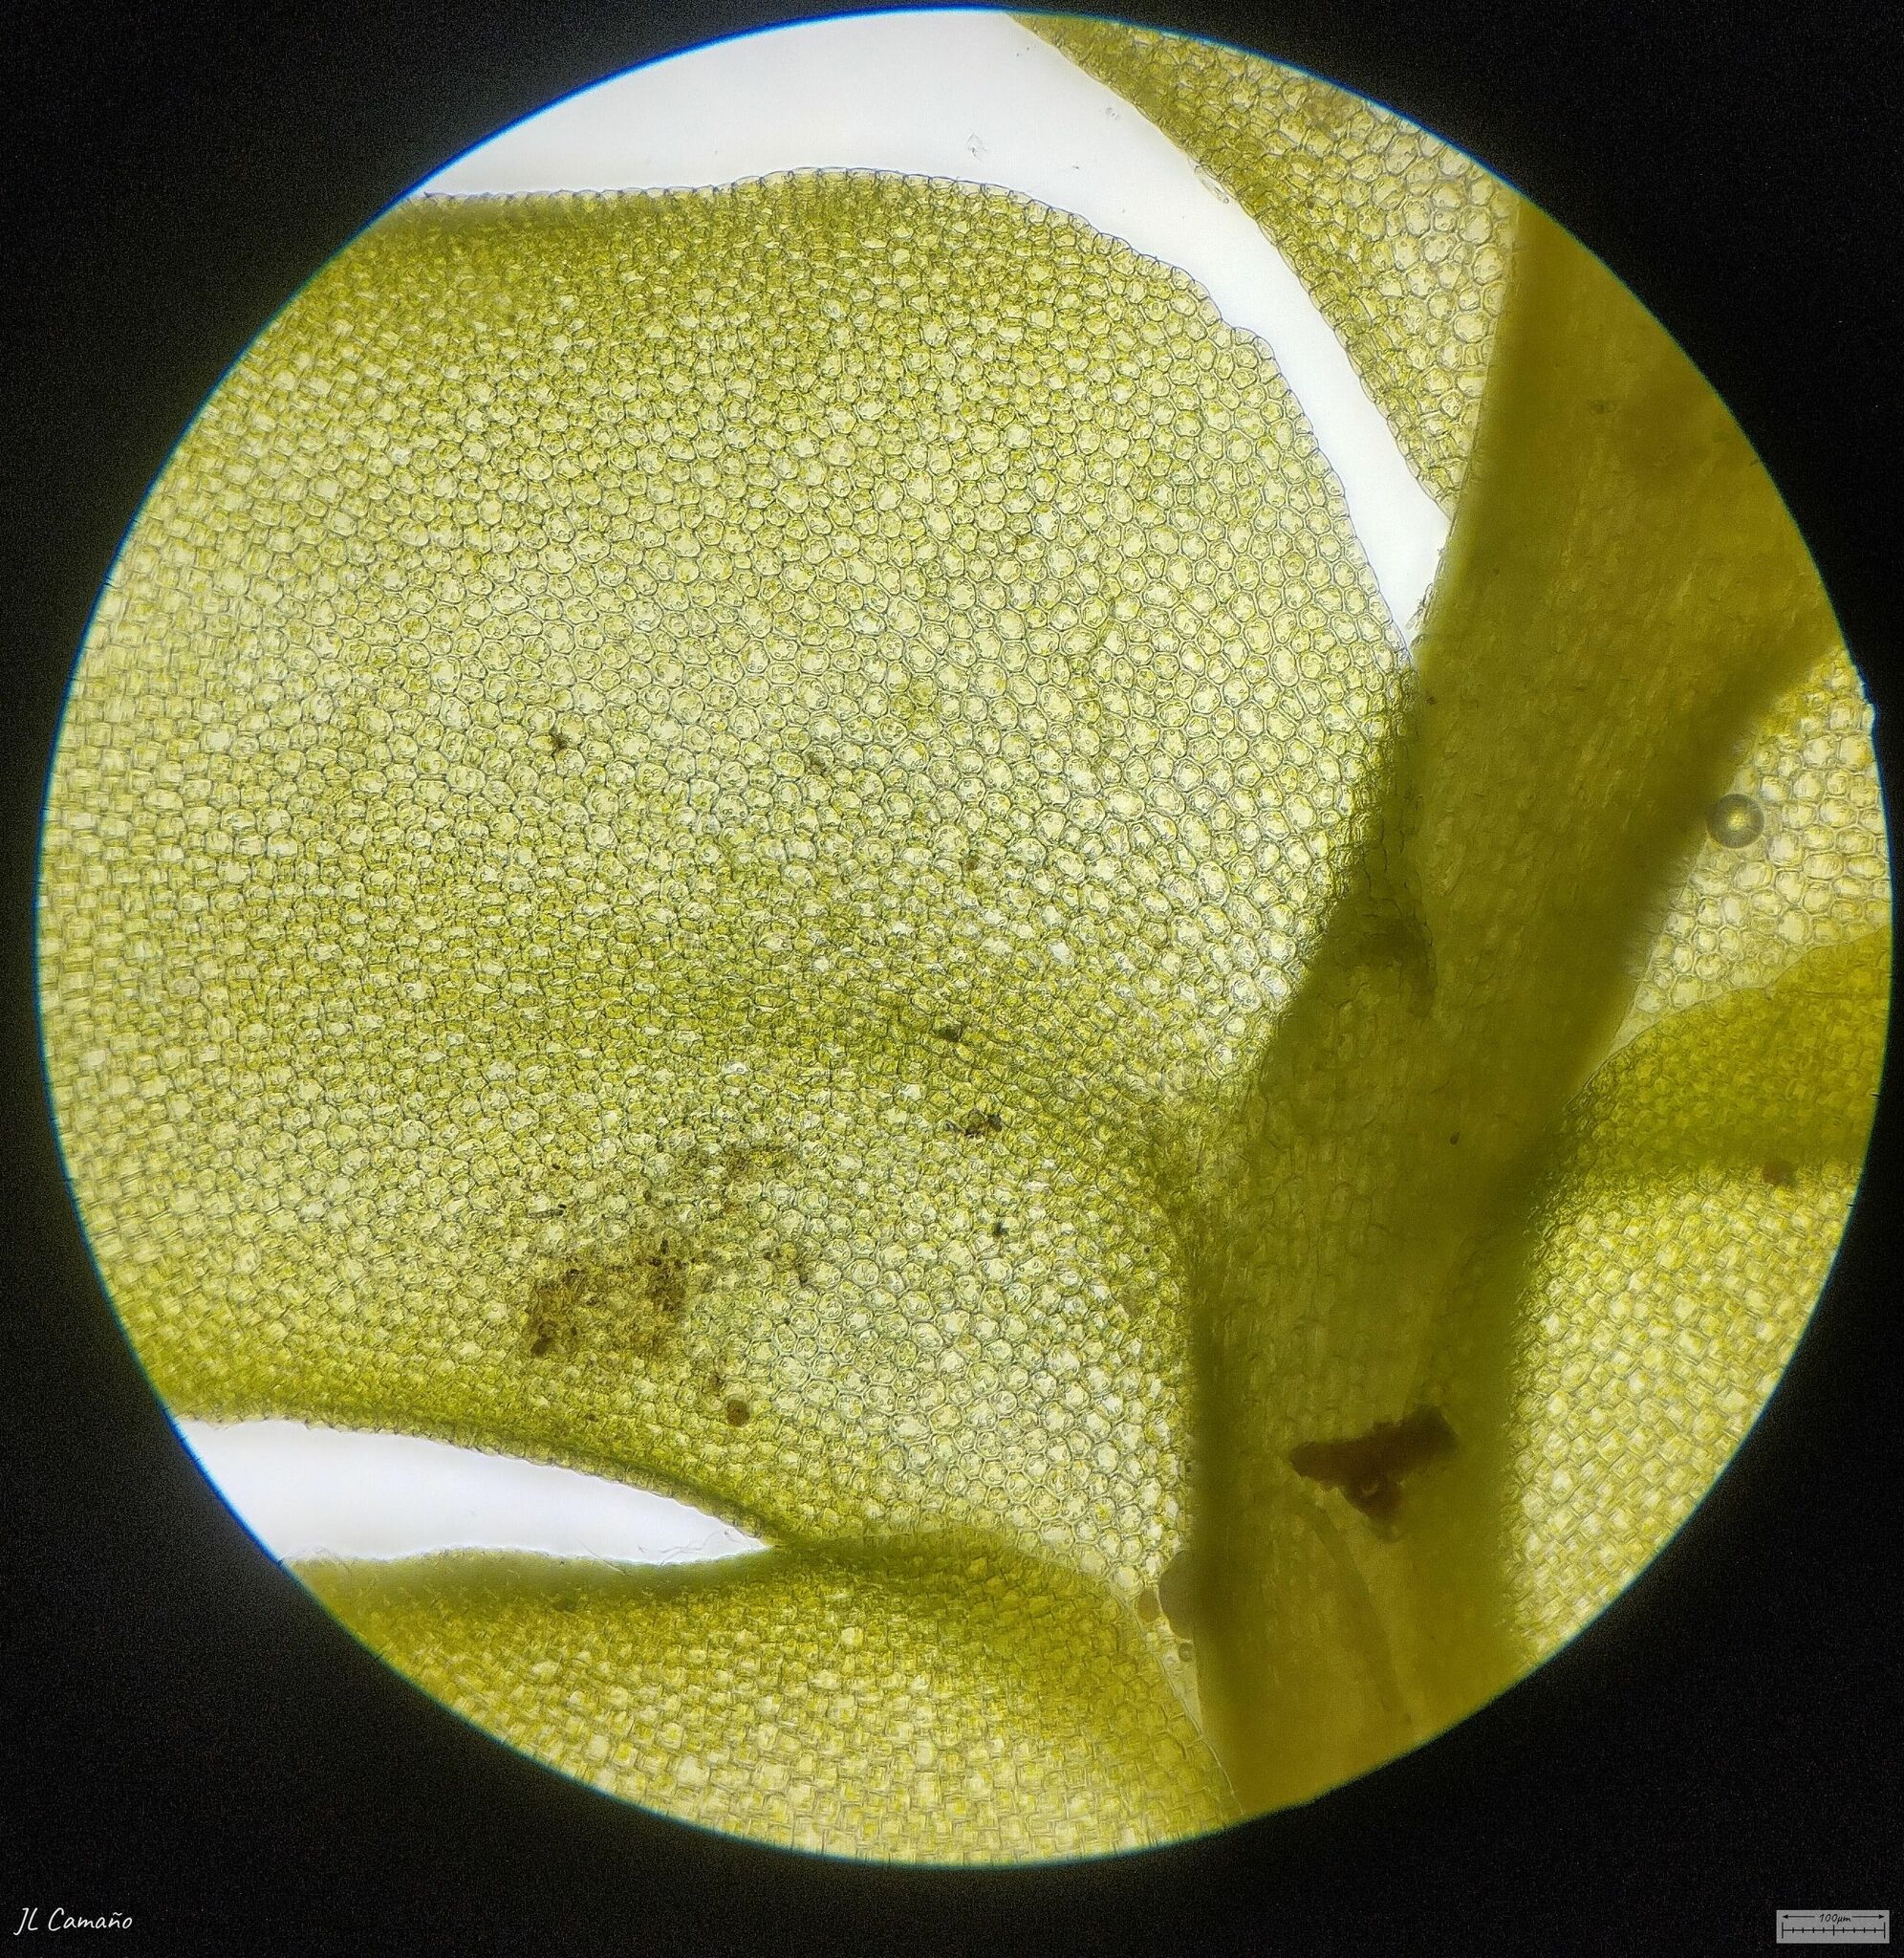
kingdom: Plantae
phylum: Marchantiophyta
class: Jungermanniopsida
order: Jungermanniales
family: Plagiochilaceae
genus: Plagiochila
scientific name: Plagiochila porelloides
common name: Lesser featherwort
